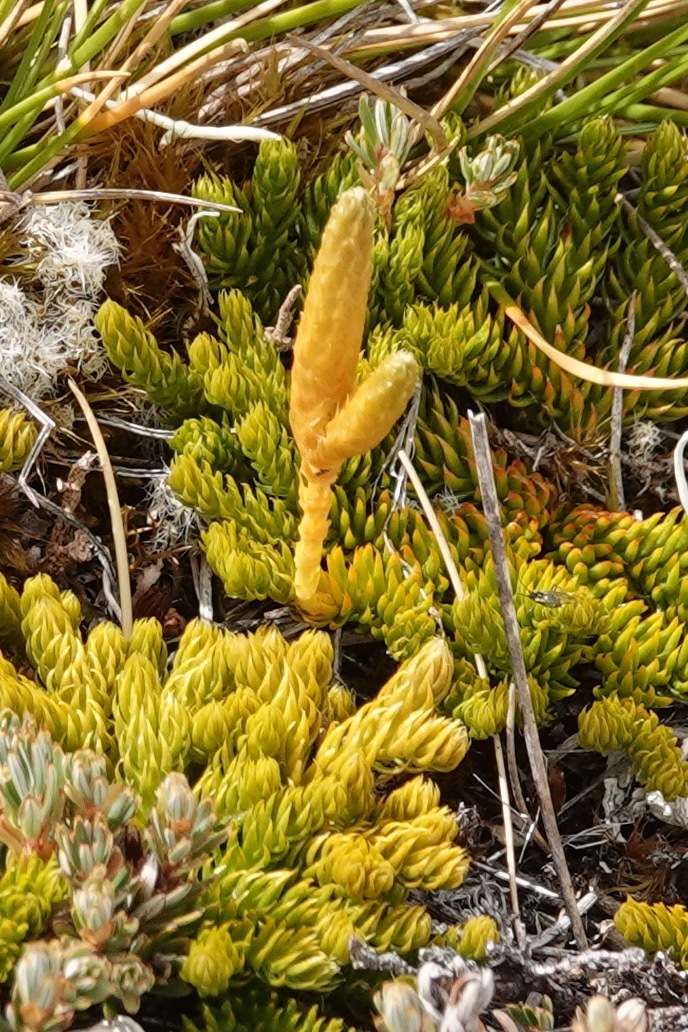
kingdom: Plantae
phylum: Tracheophyta
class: Lycopodiopsida
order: Lycopodiales
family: Lycopodiaceae
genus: Austrolycopodium
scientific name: Austrolycopodium fastigiatum
